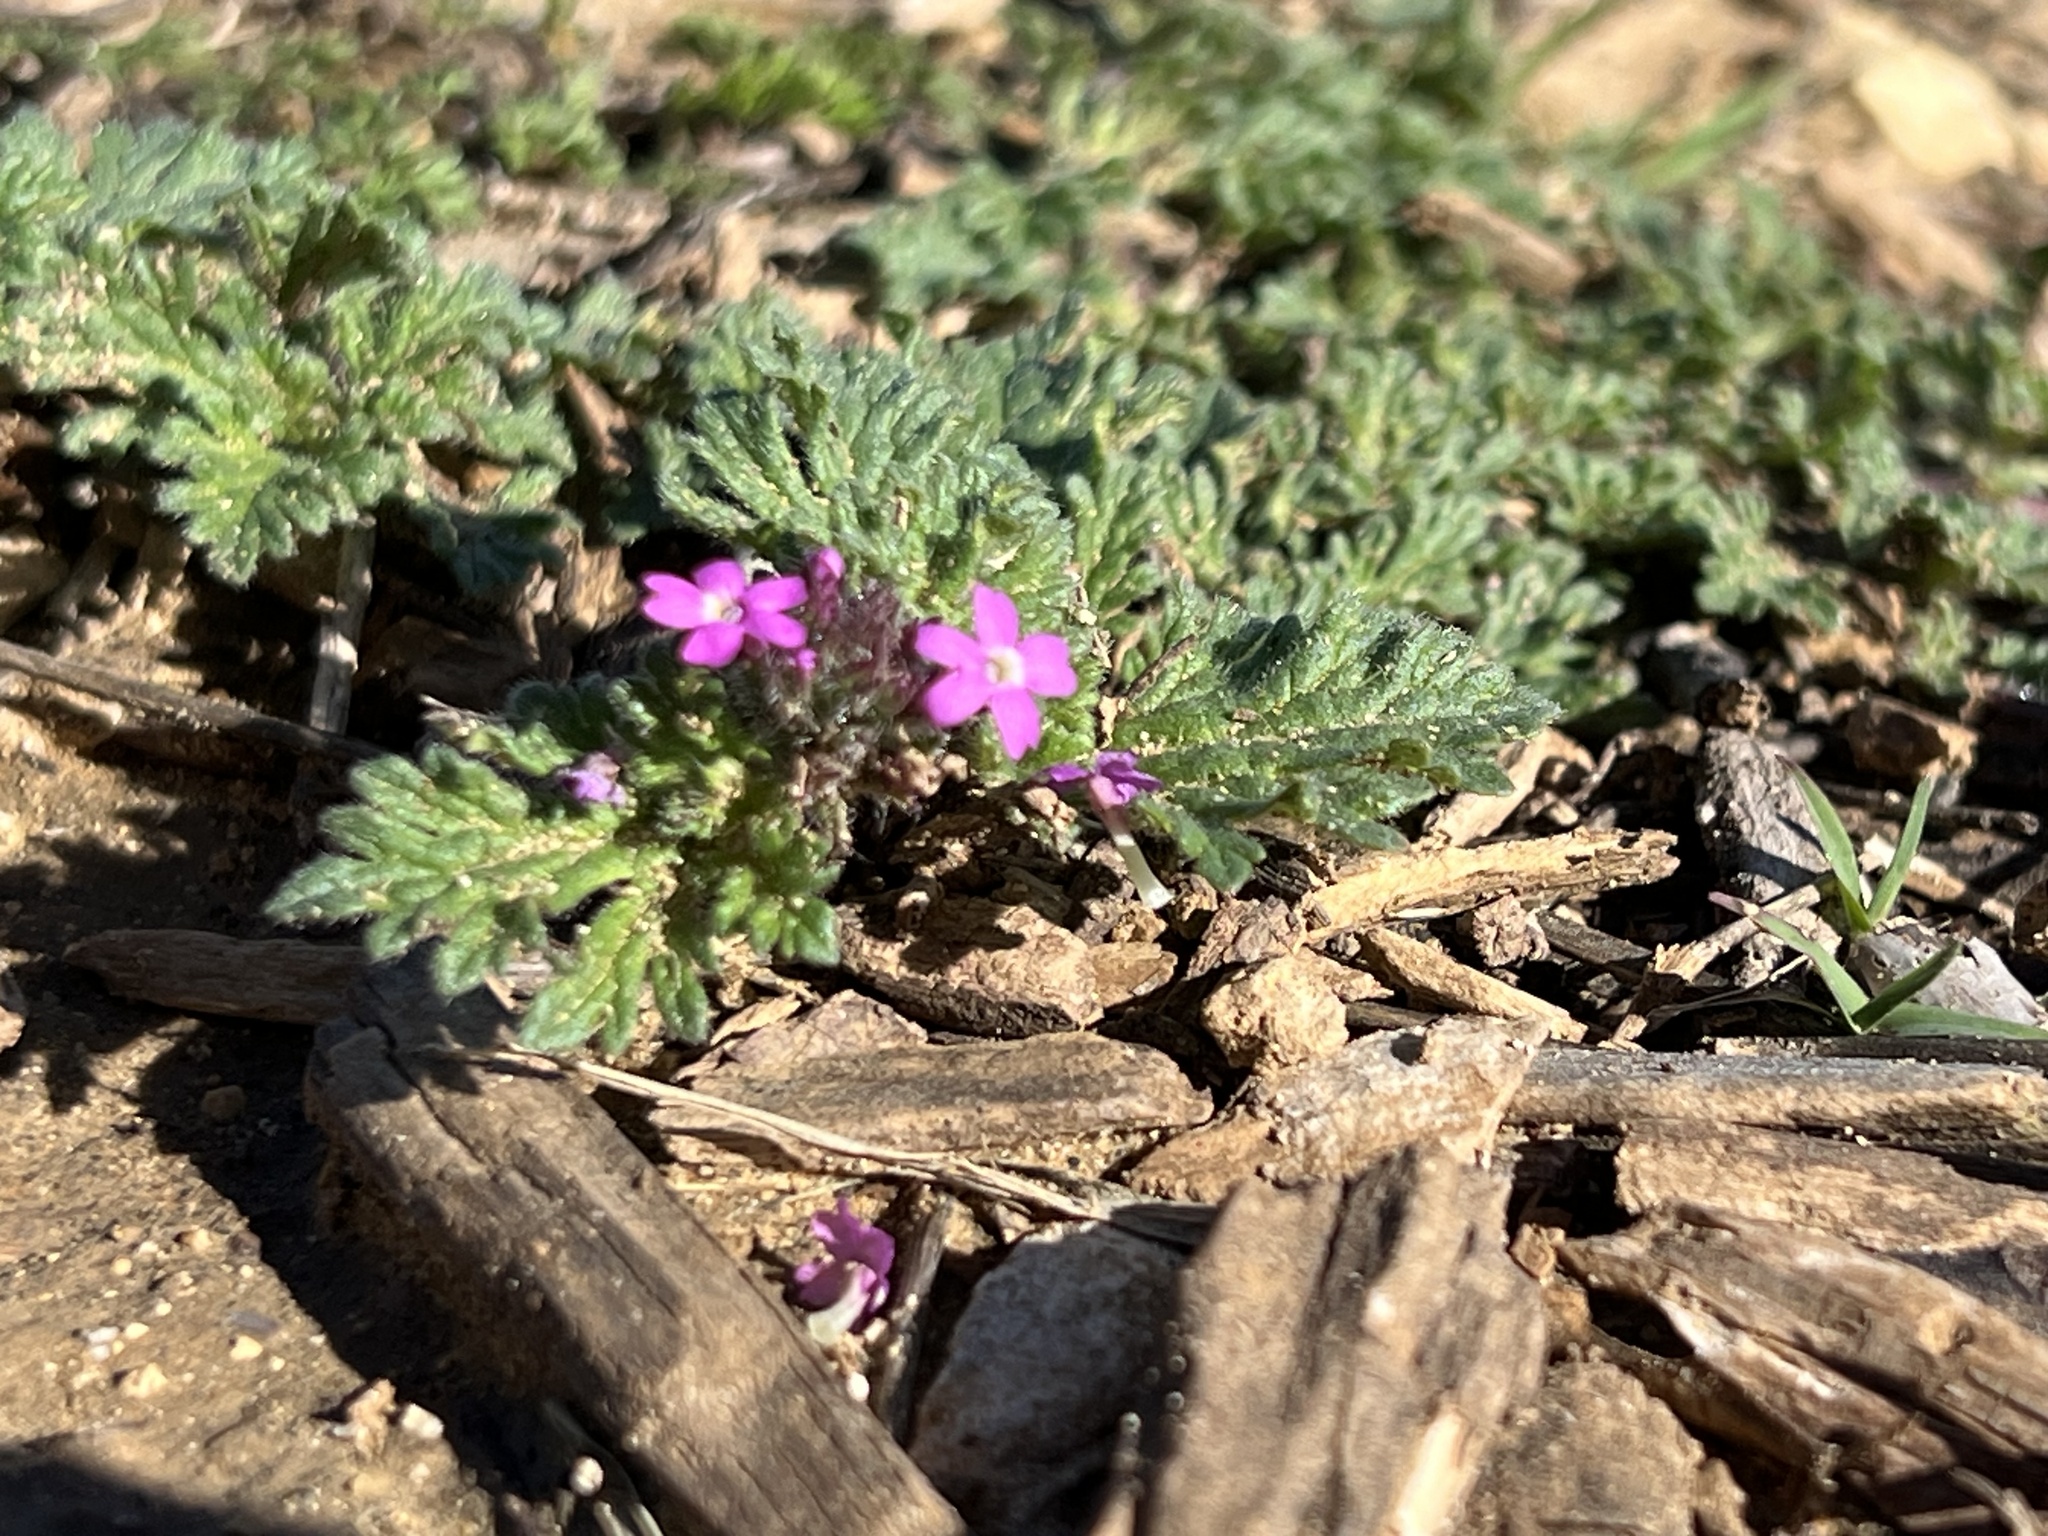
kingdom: Plantae
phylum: Tracheophyta
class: Magnoliopsida
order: Lamiales
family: Verbenaceae
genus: Verbena
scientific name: Verbena pumila
